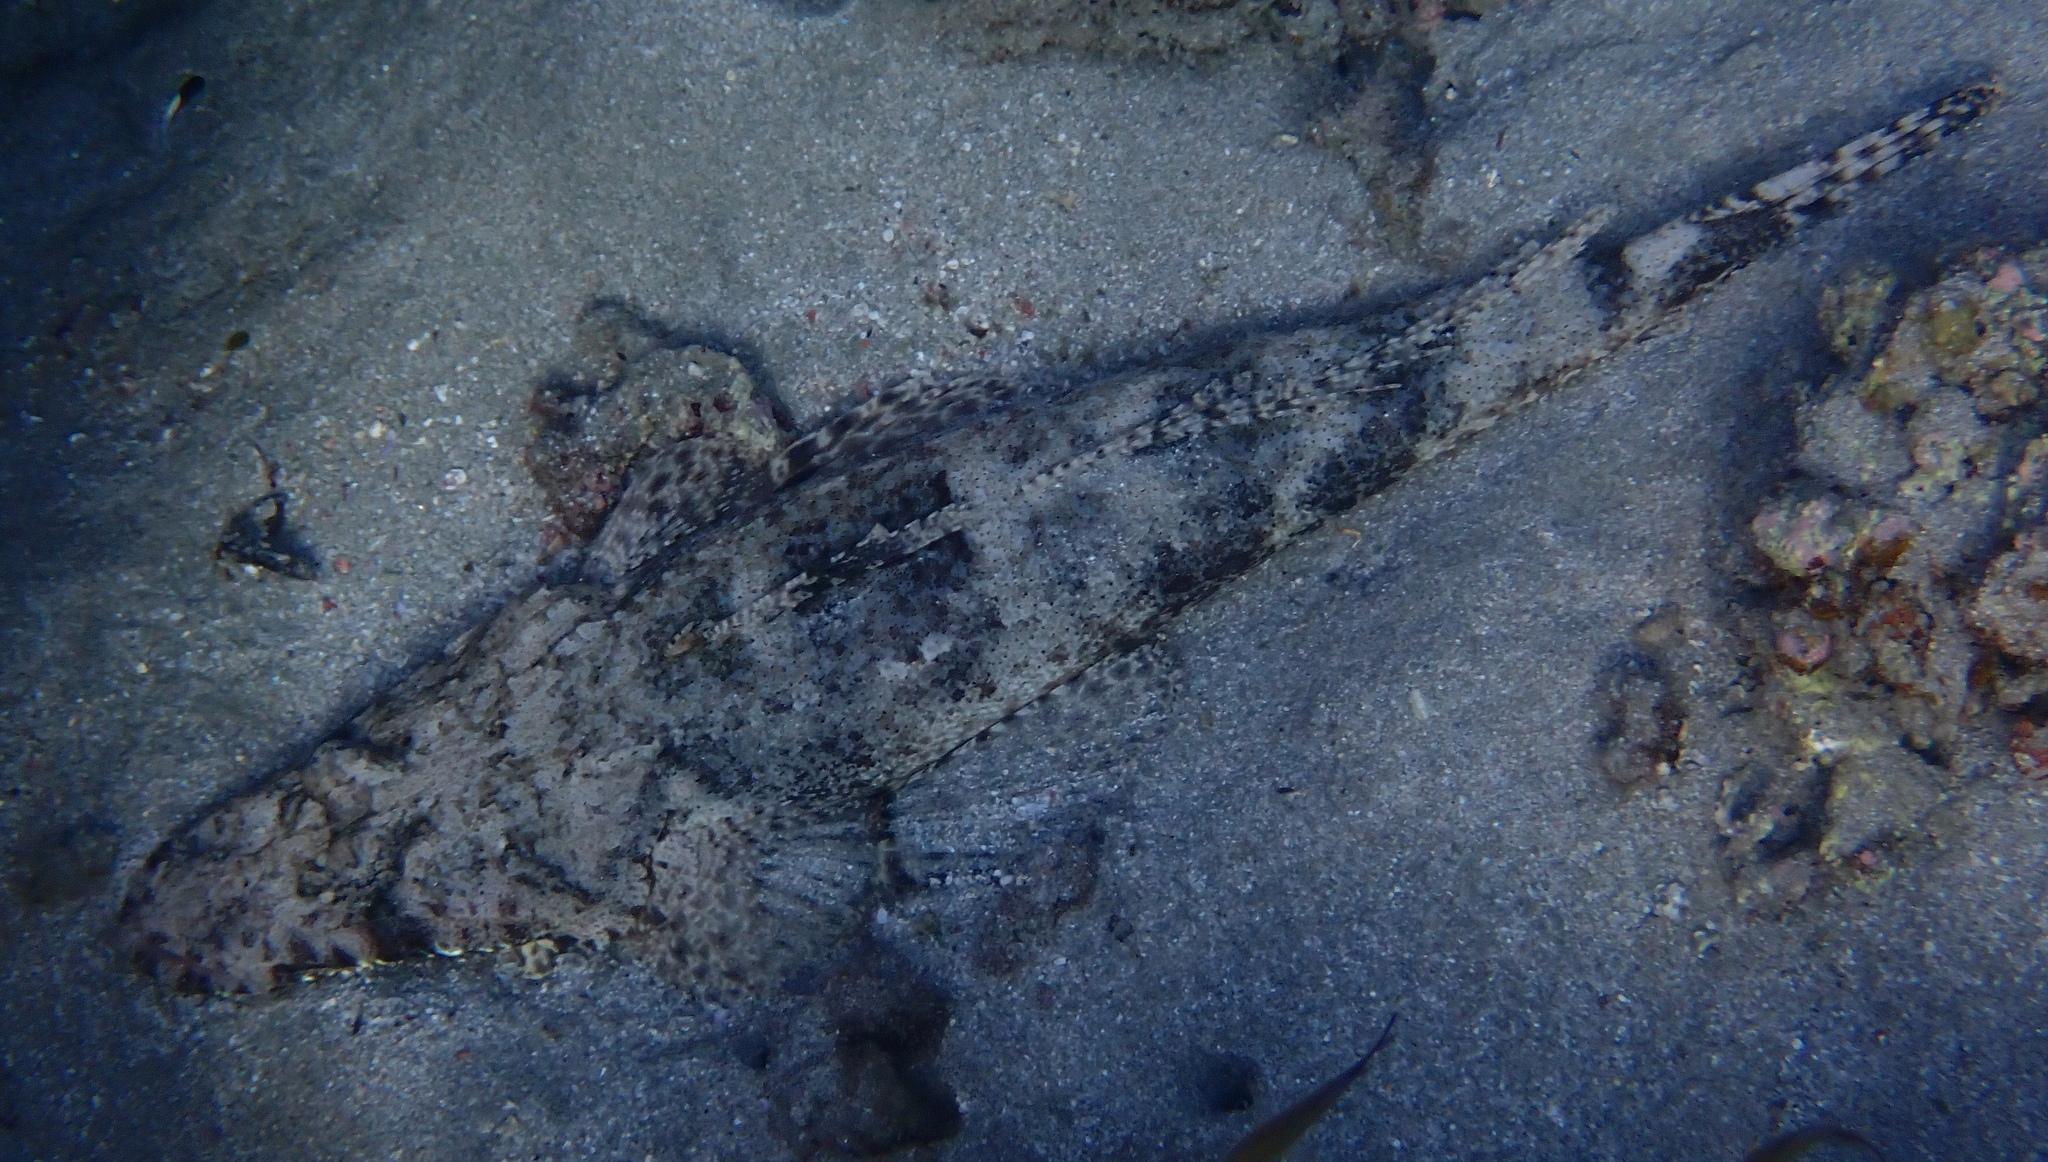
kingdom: Animalia
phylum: Chordata
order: Scorpaeniformes
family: Platycephalidae
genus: Papilloculiceps
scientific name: Papilloculiceps longiceps
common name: Tentacled flathead
